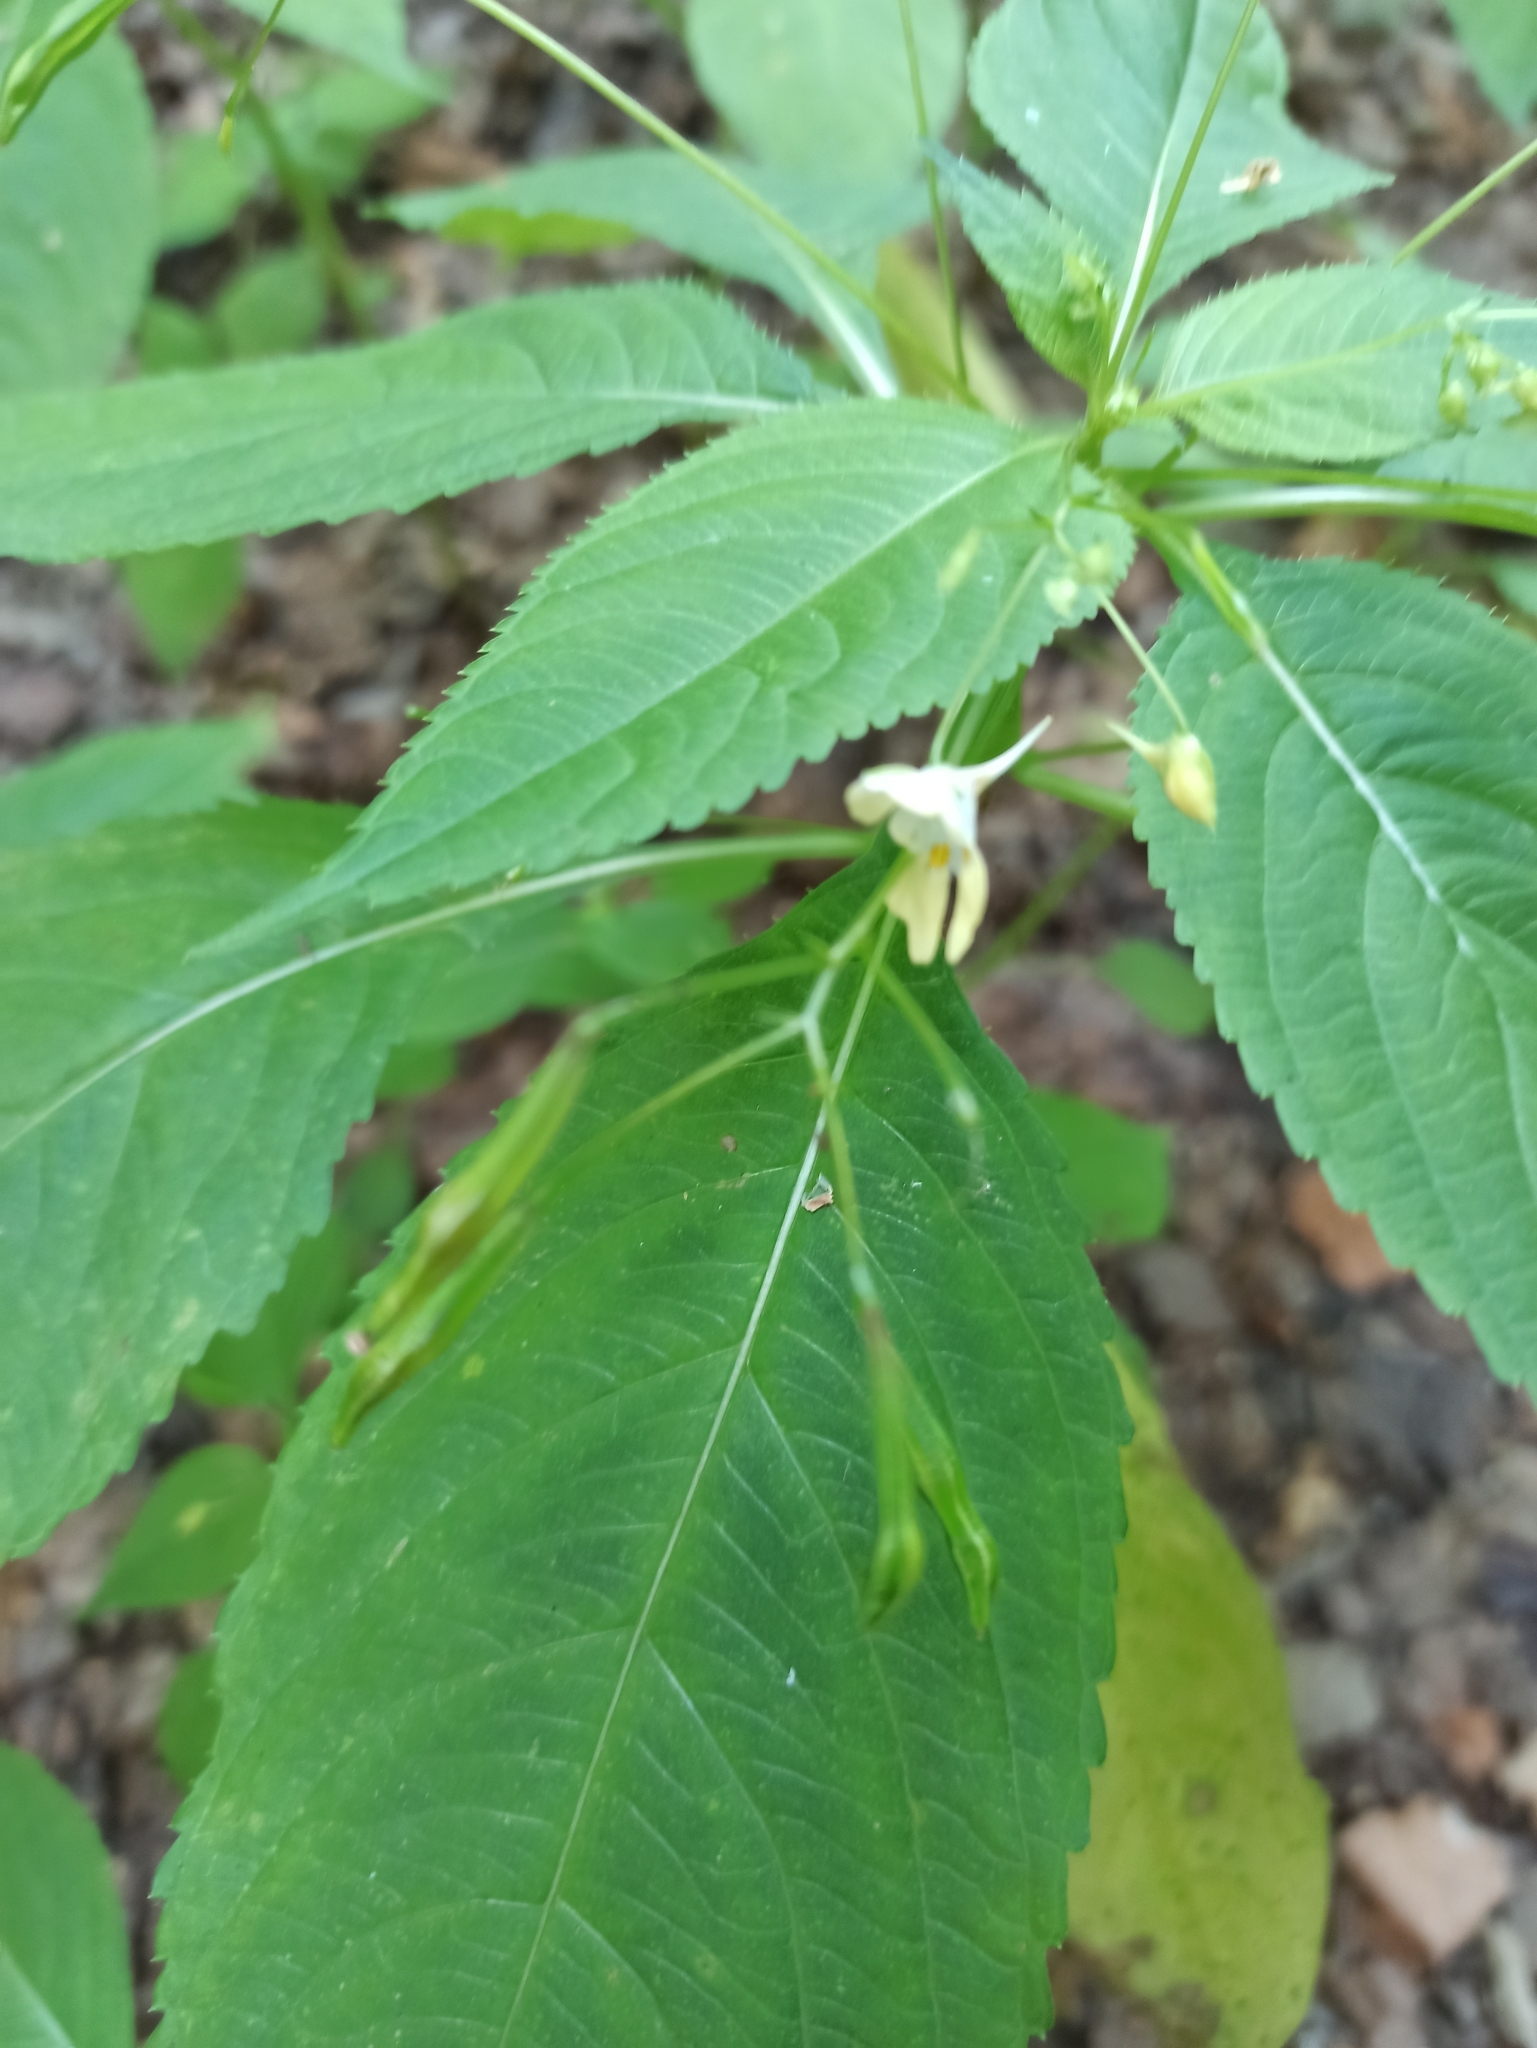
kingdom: Plantae
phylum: Tracheophyta
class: Magnoliopsida
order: Ericales
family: Balsaminaceae
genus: Impatiens
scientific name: Impatiens parviflora
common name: Small balsam
